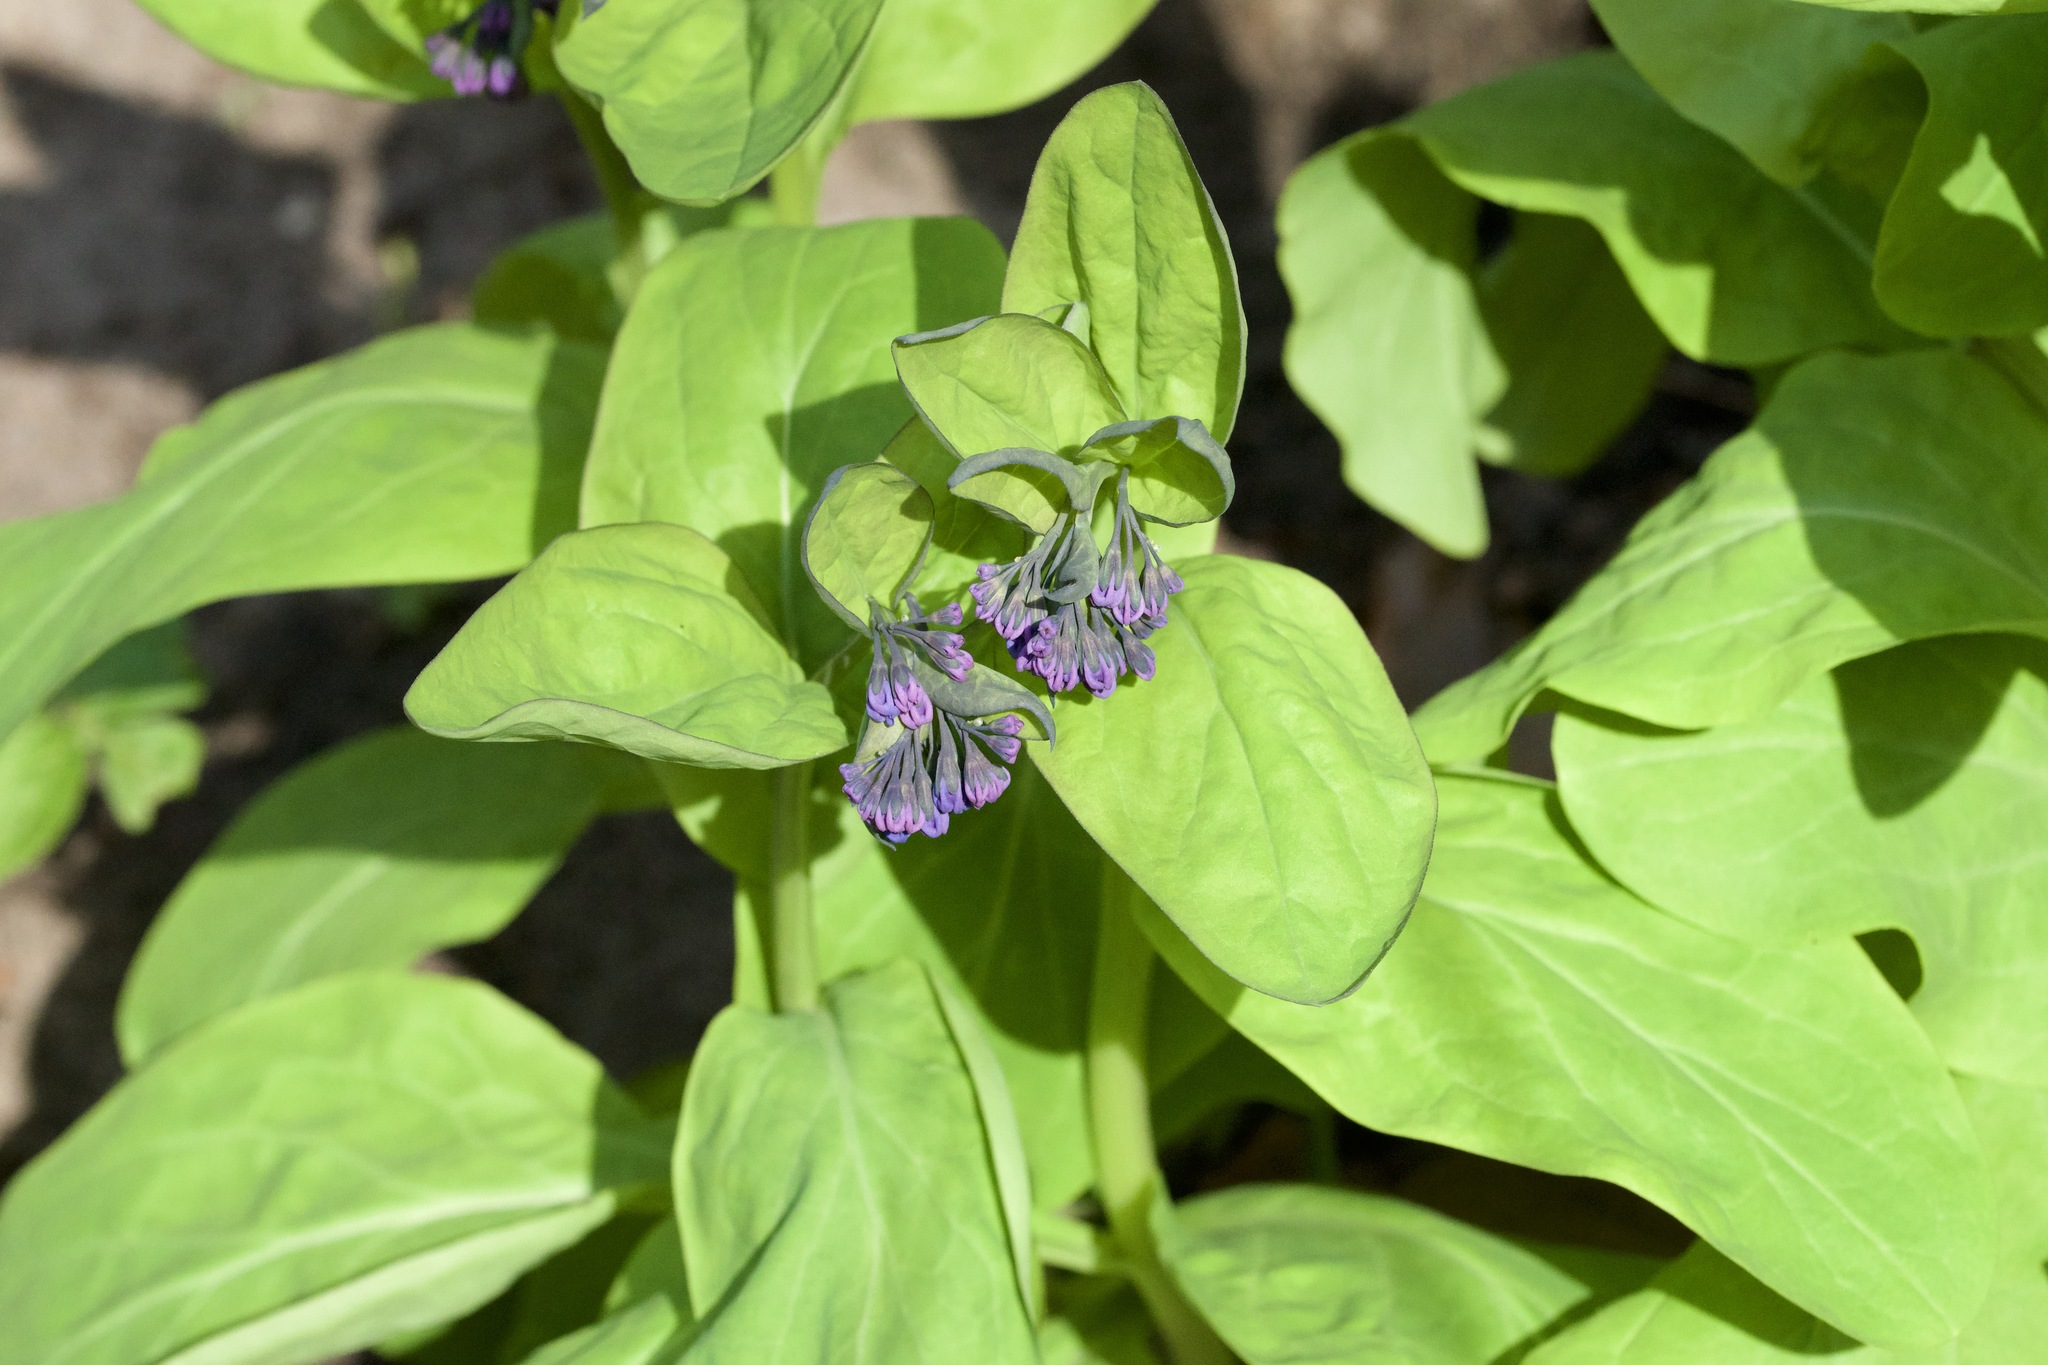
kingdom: Plantae
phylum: Tracheophyta
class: Magnoliopsida
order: Boraginales
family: Boraginaceae
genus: Mertensia
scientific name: Mertensia virginica
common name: Virginia bluebells
